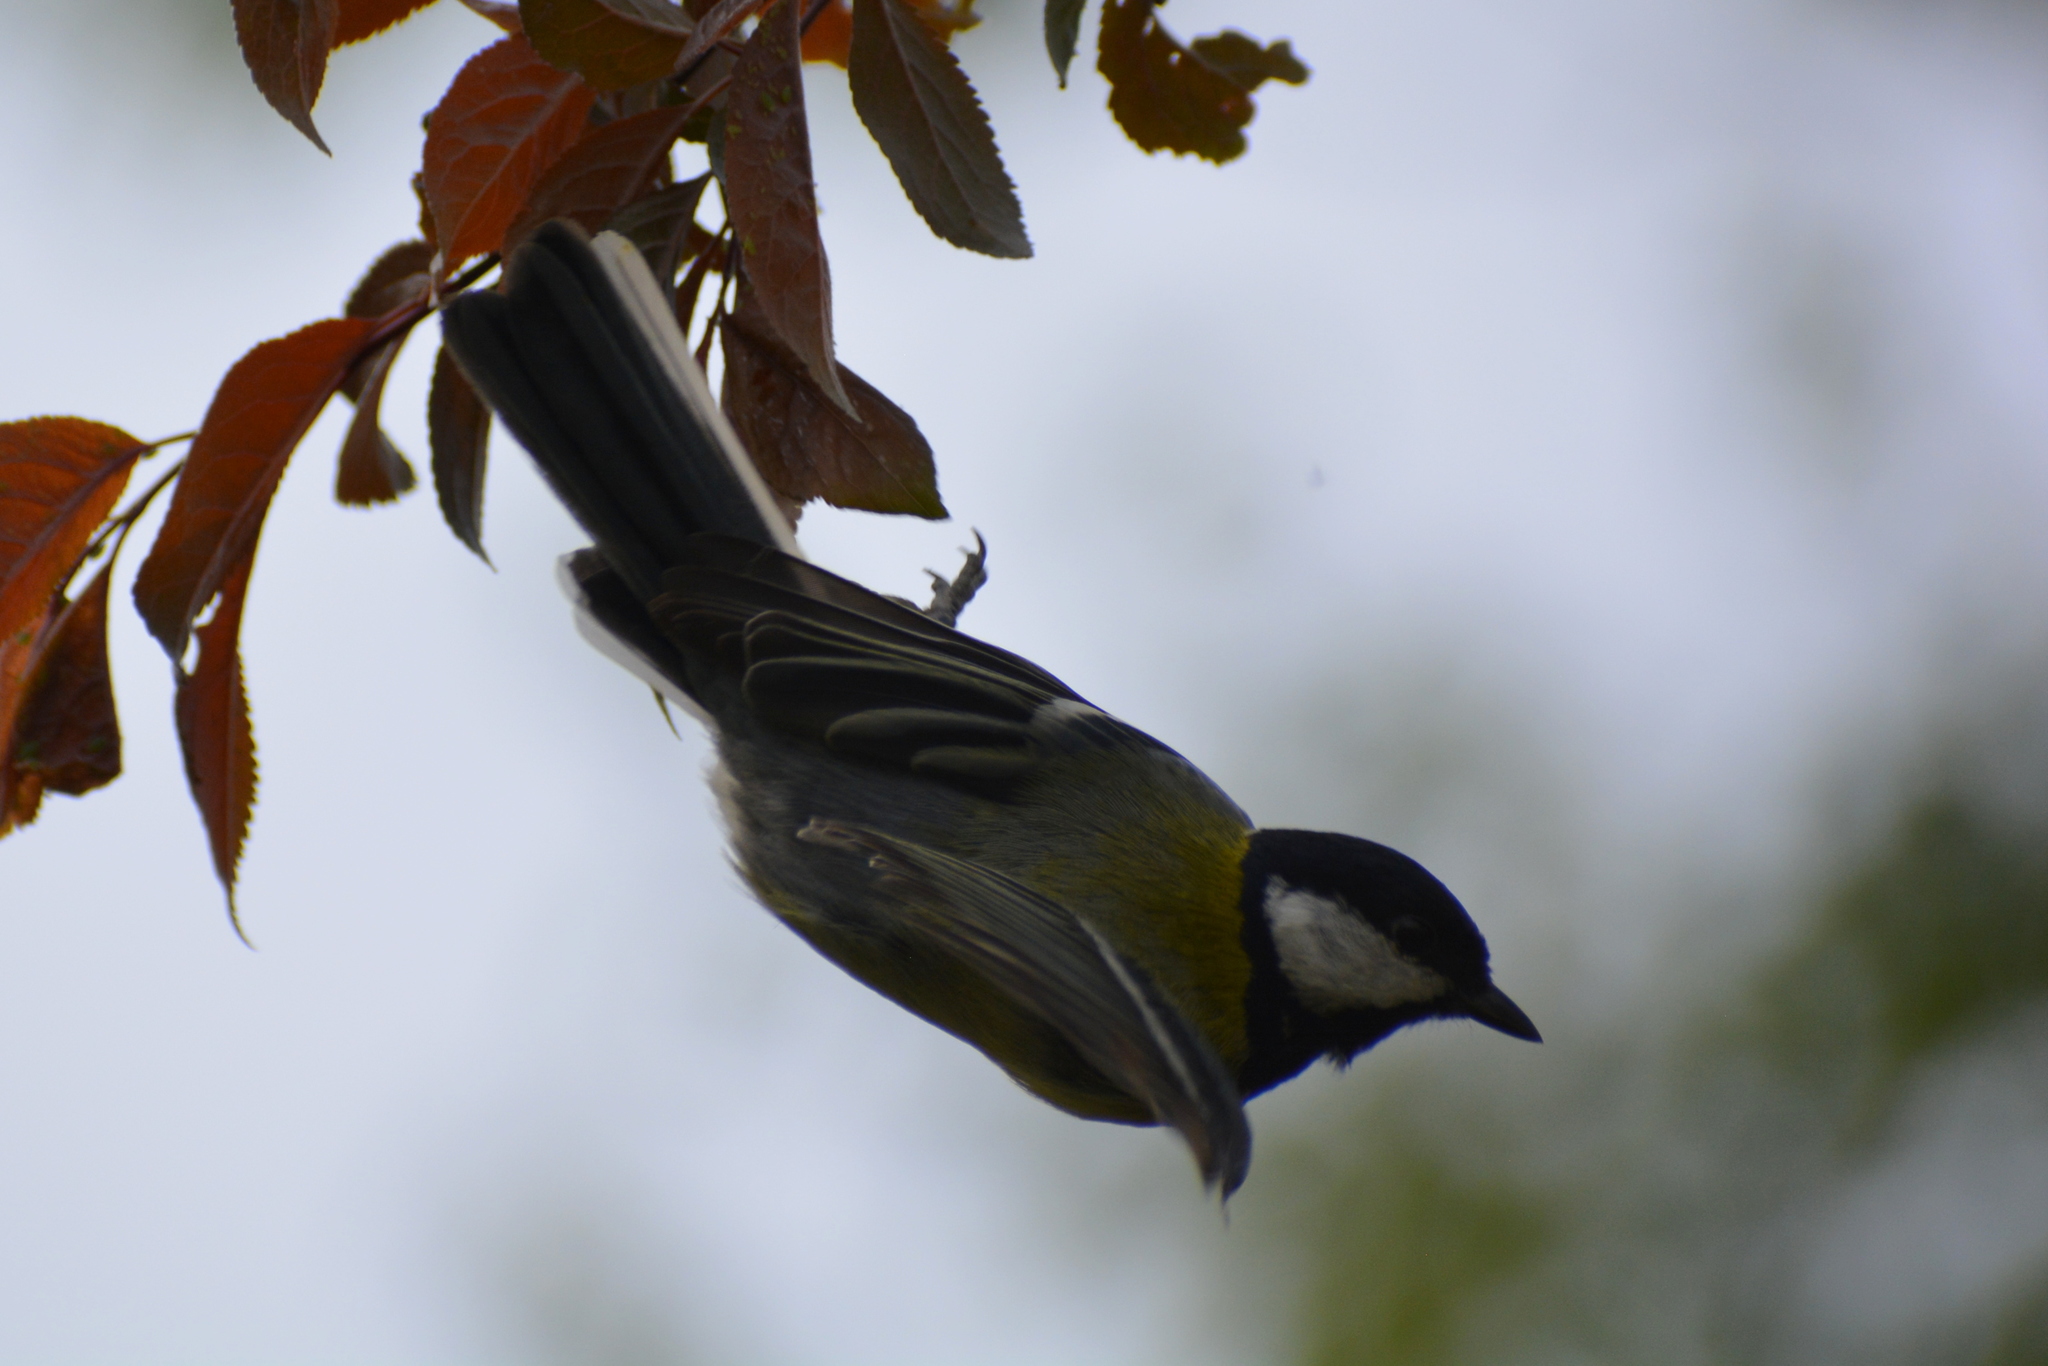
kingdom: Animalia
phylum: Chordata
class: Aves
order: Passeriformes
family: Paridae
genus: Parus
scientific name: Parus major
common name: Great tit
